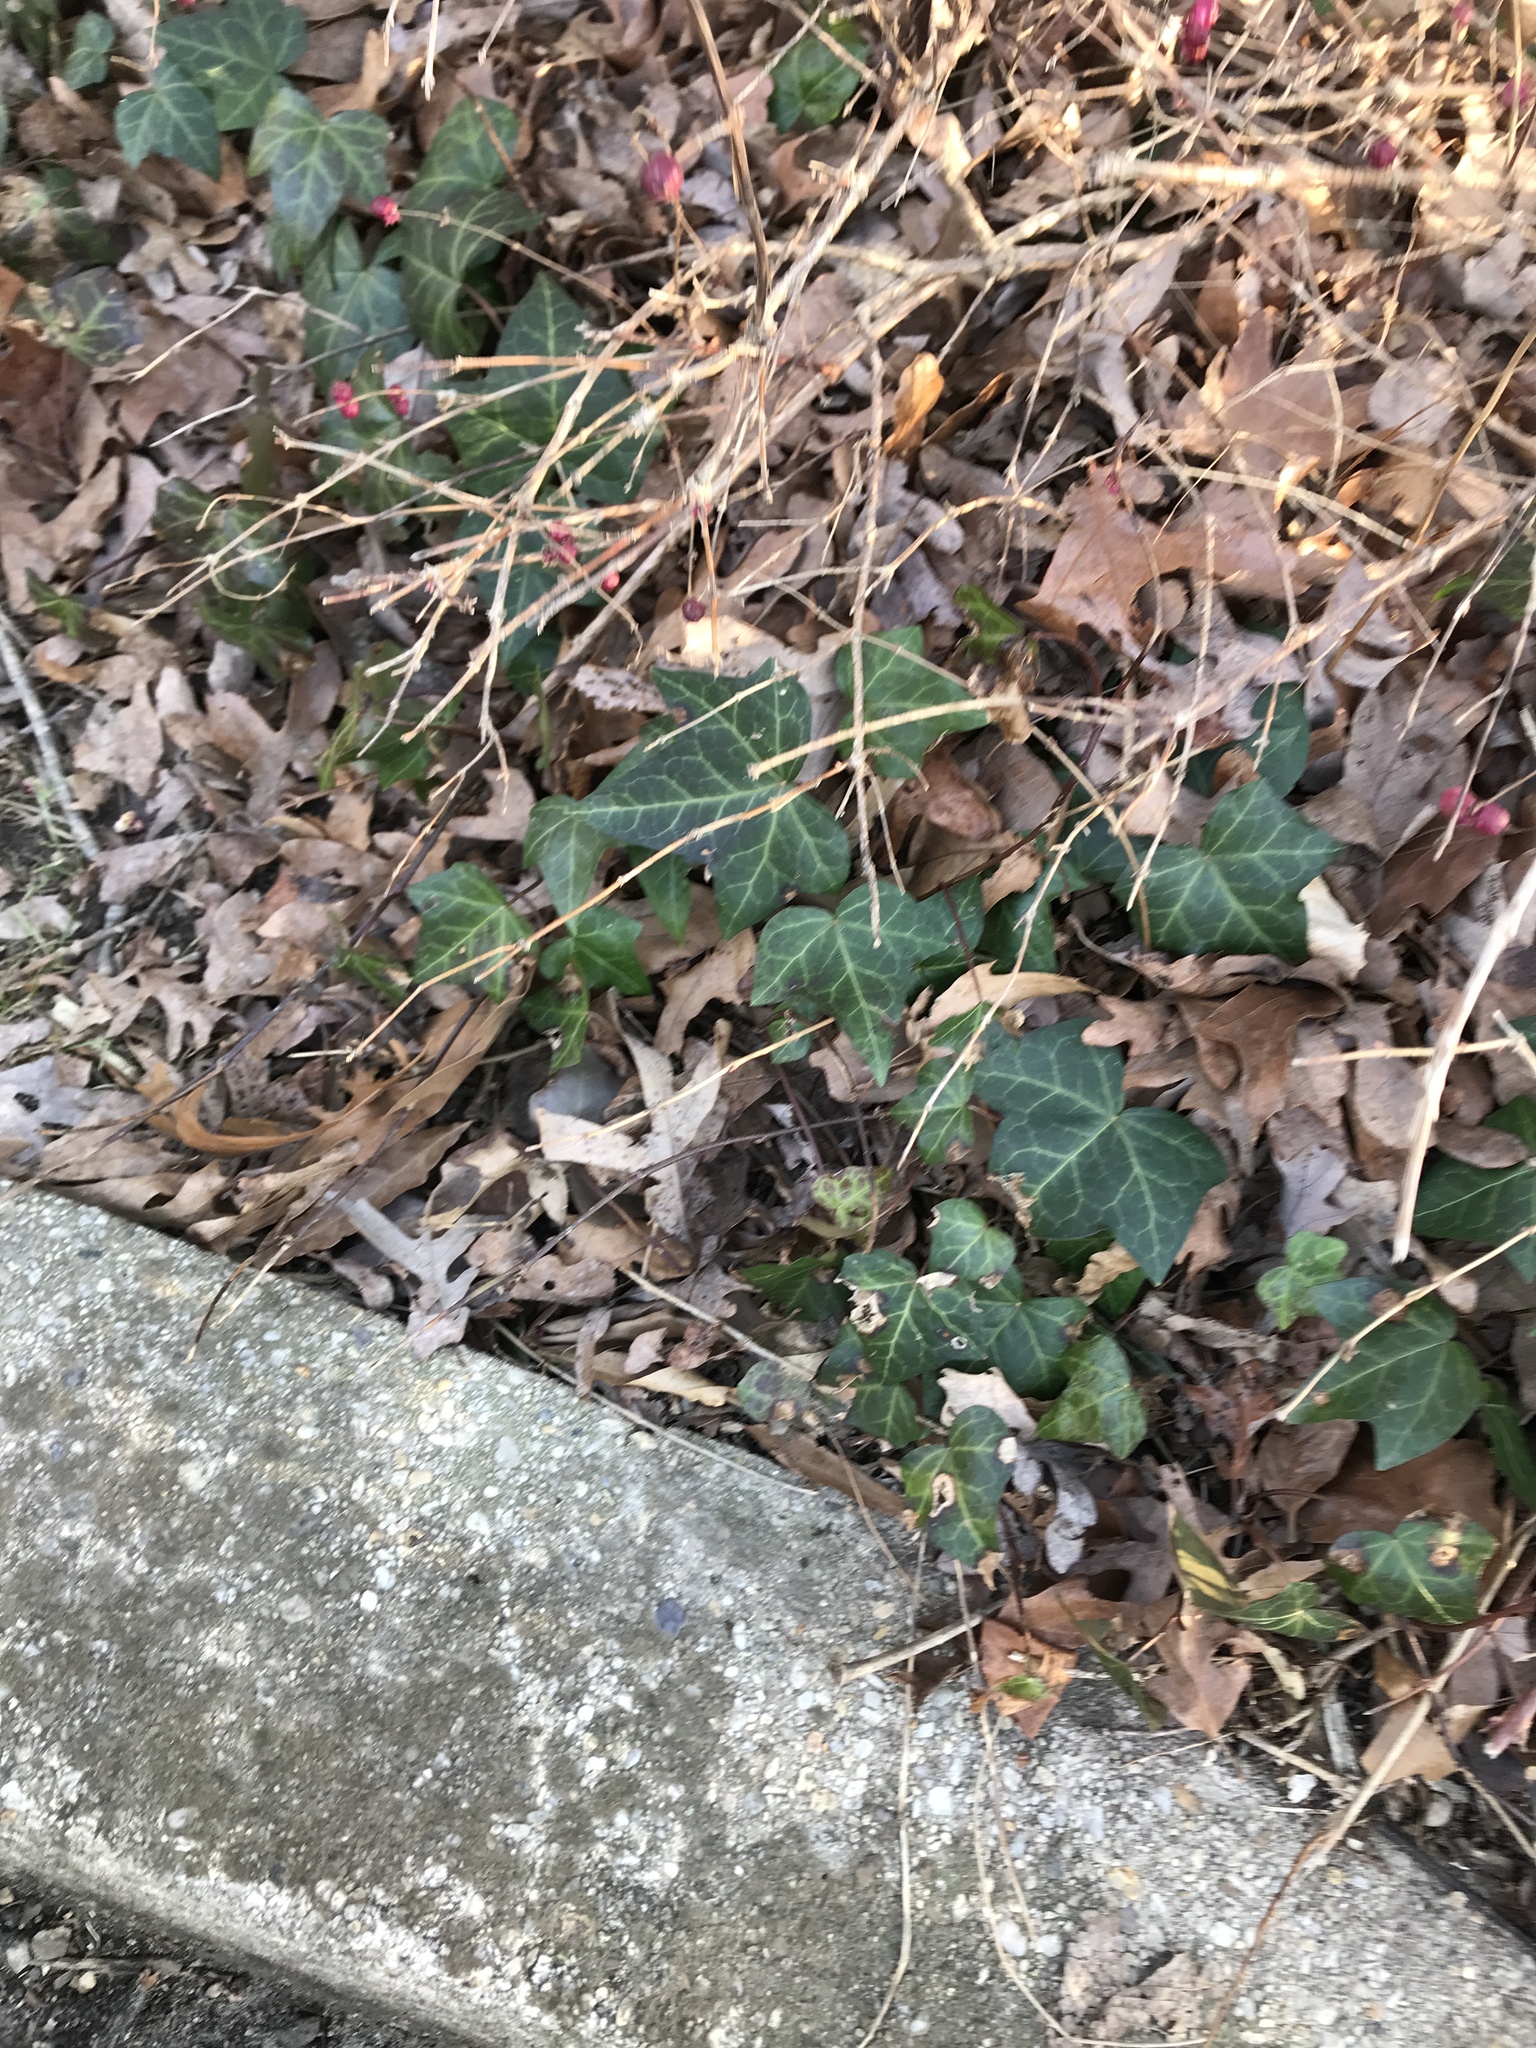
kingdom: Plantae
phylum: Tracheophyta
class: Magnoliopsida
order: Apiales
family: Araliaceae
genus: Hedera
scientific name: Hedera helix
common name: Ivy
